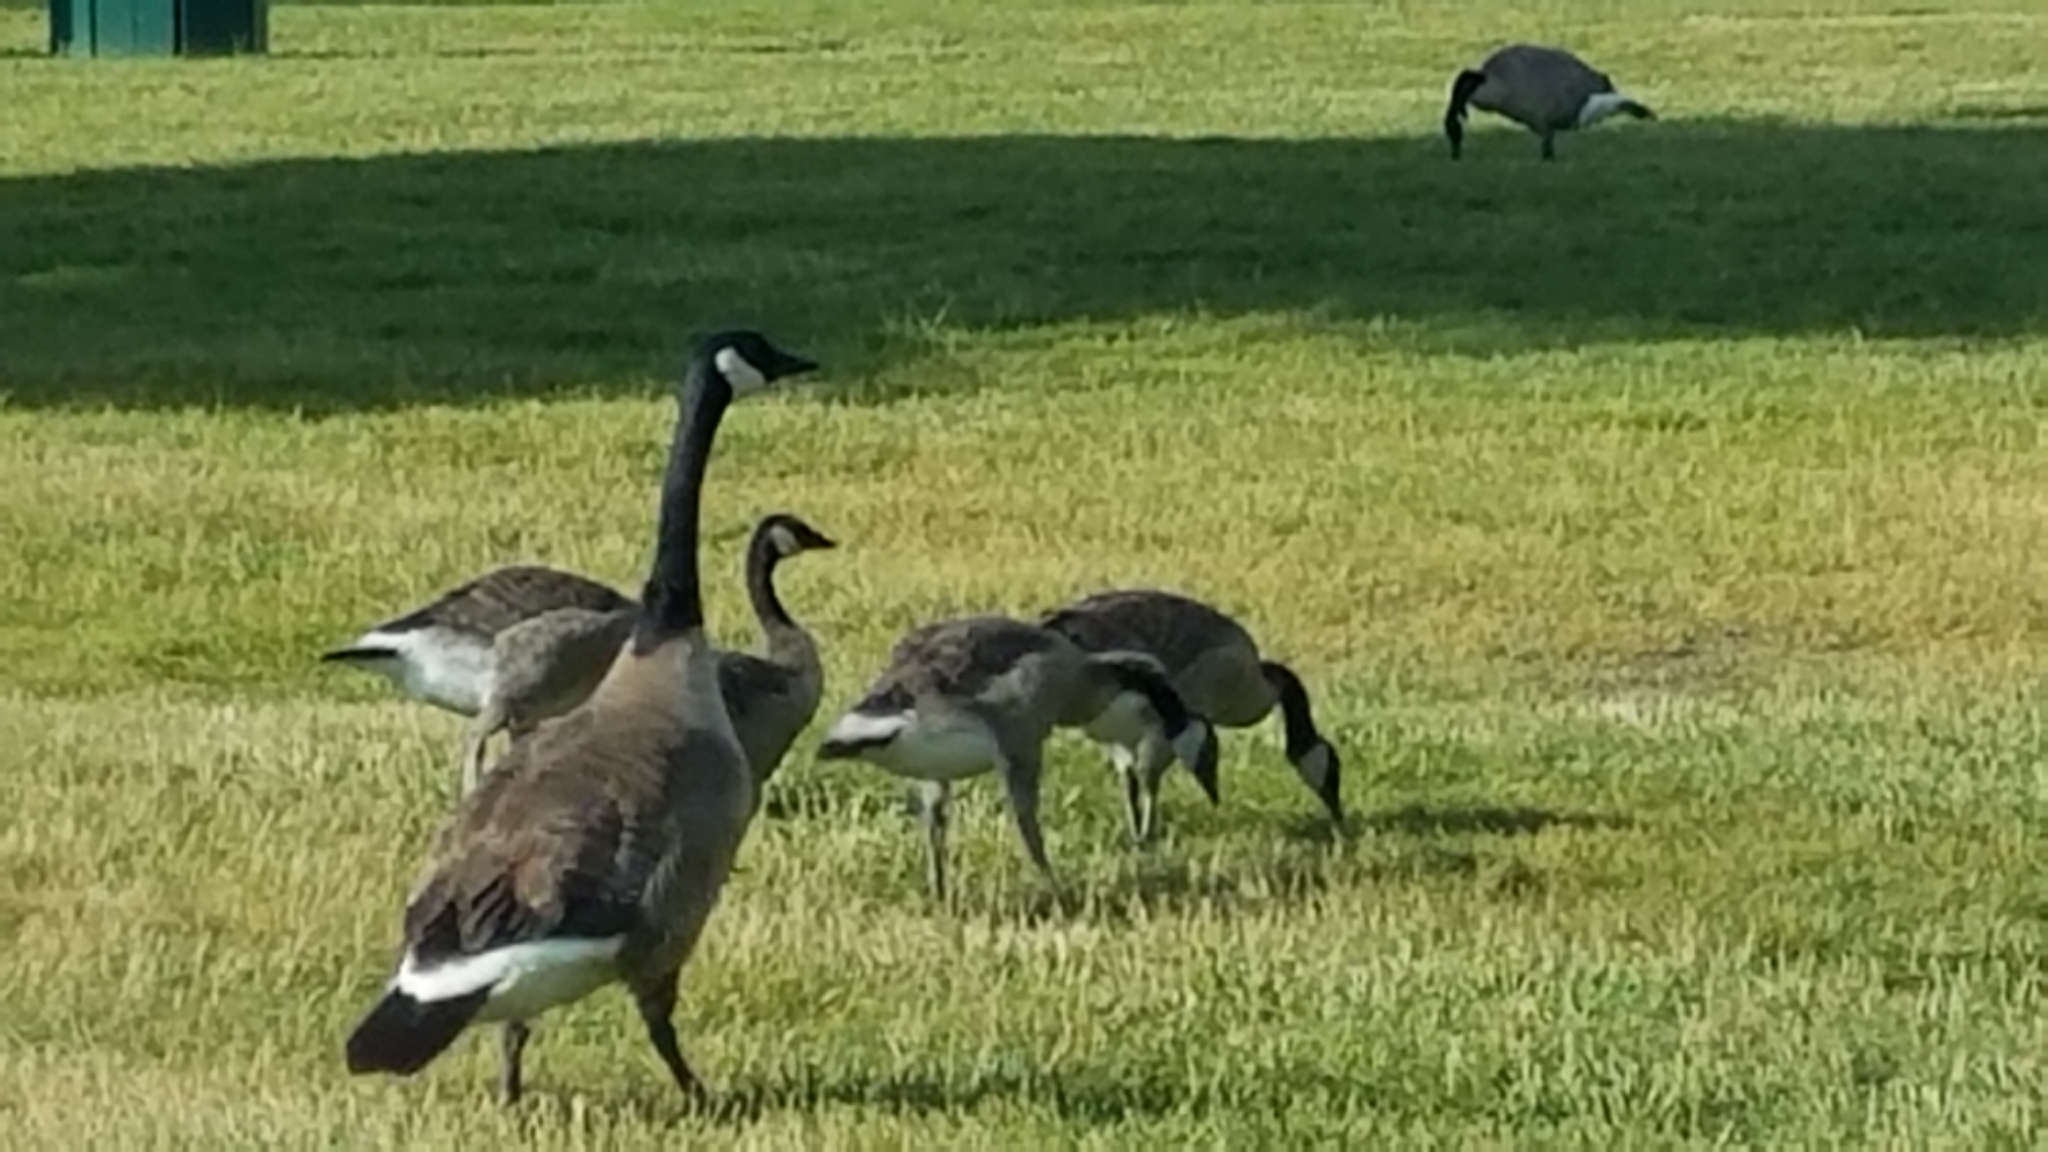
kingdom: Animalia
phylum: Chordata
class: Aves
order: Anseriformes
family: Anatidae
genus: Branta
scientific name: Branta canadensis
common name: Canada goose
